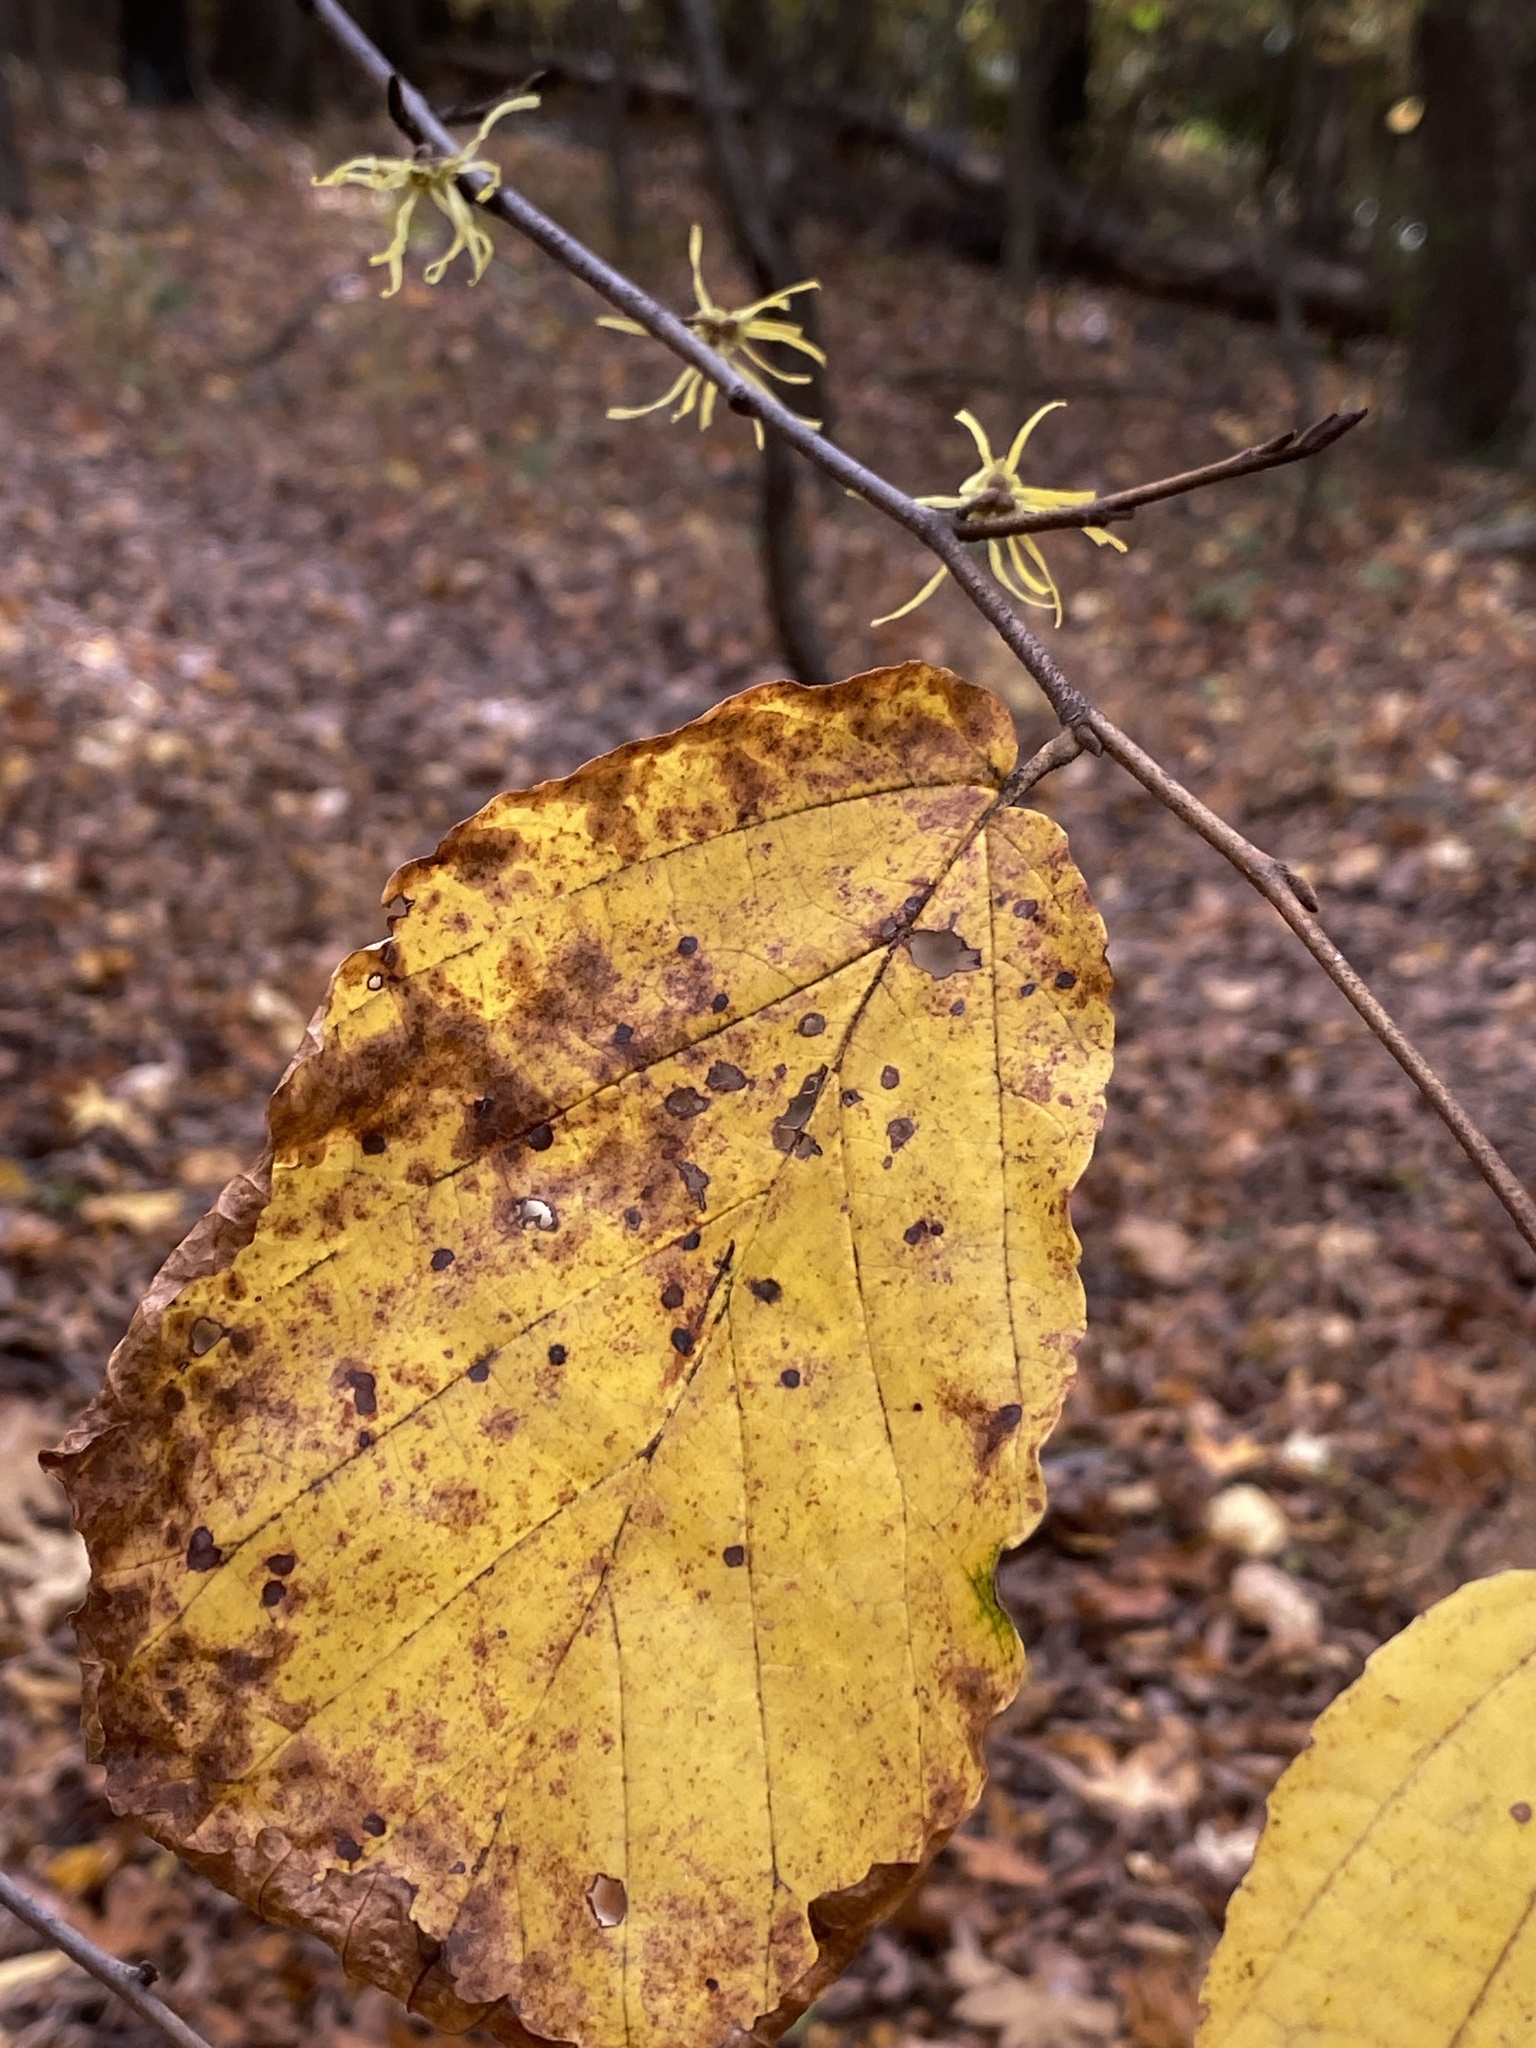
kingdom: Plantae
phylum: Tracheophyta
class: Magnoliopsida
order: Saxifragales
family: Hamamelidaceae
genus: Hamamelis
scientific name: Hamamelis virginiana
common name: Witch-hazel
